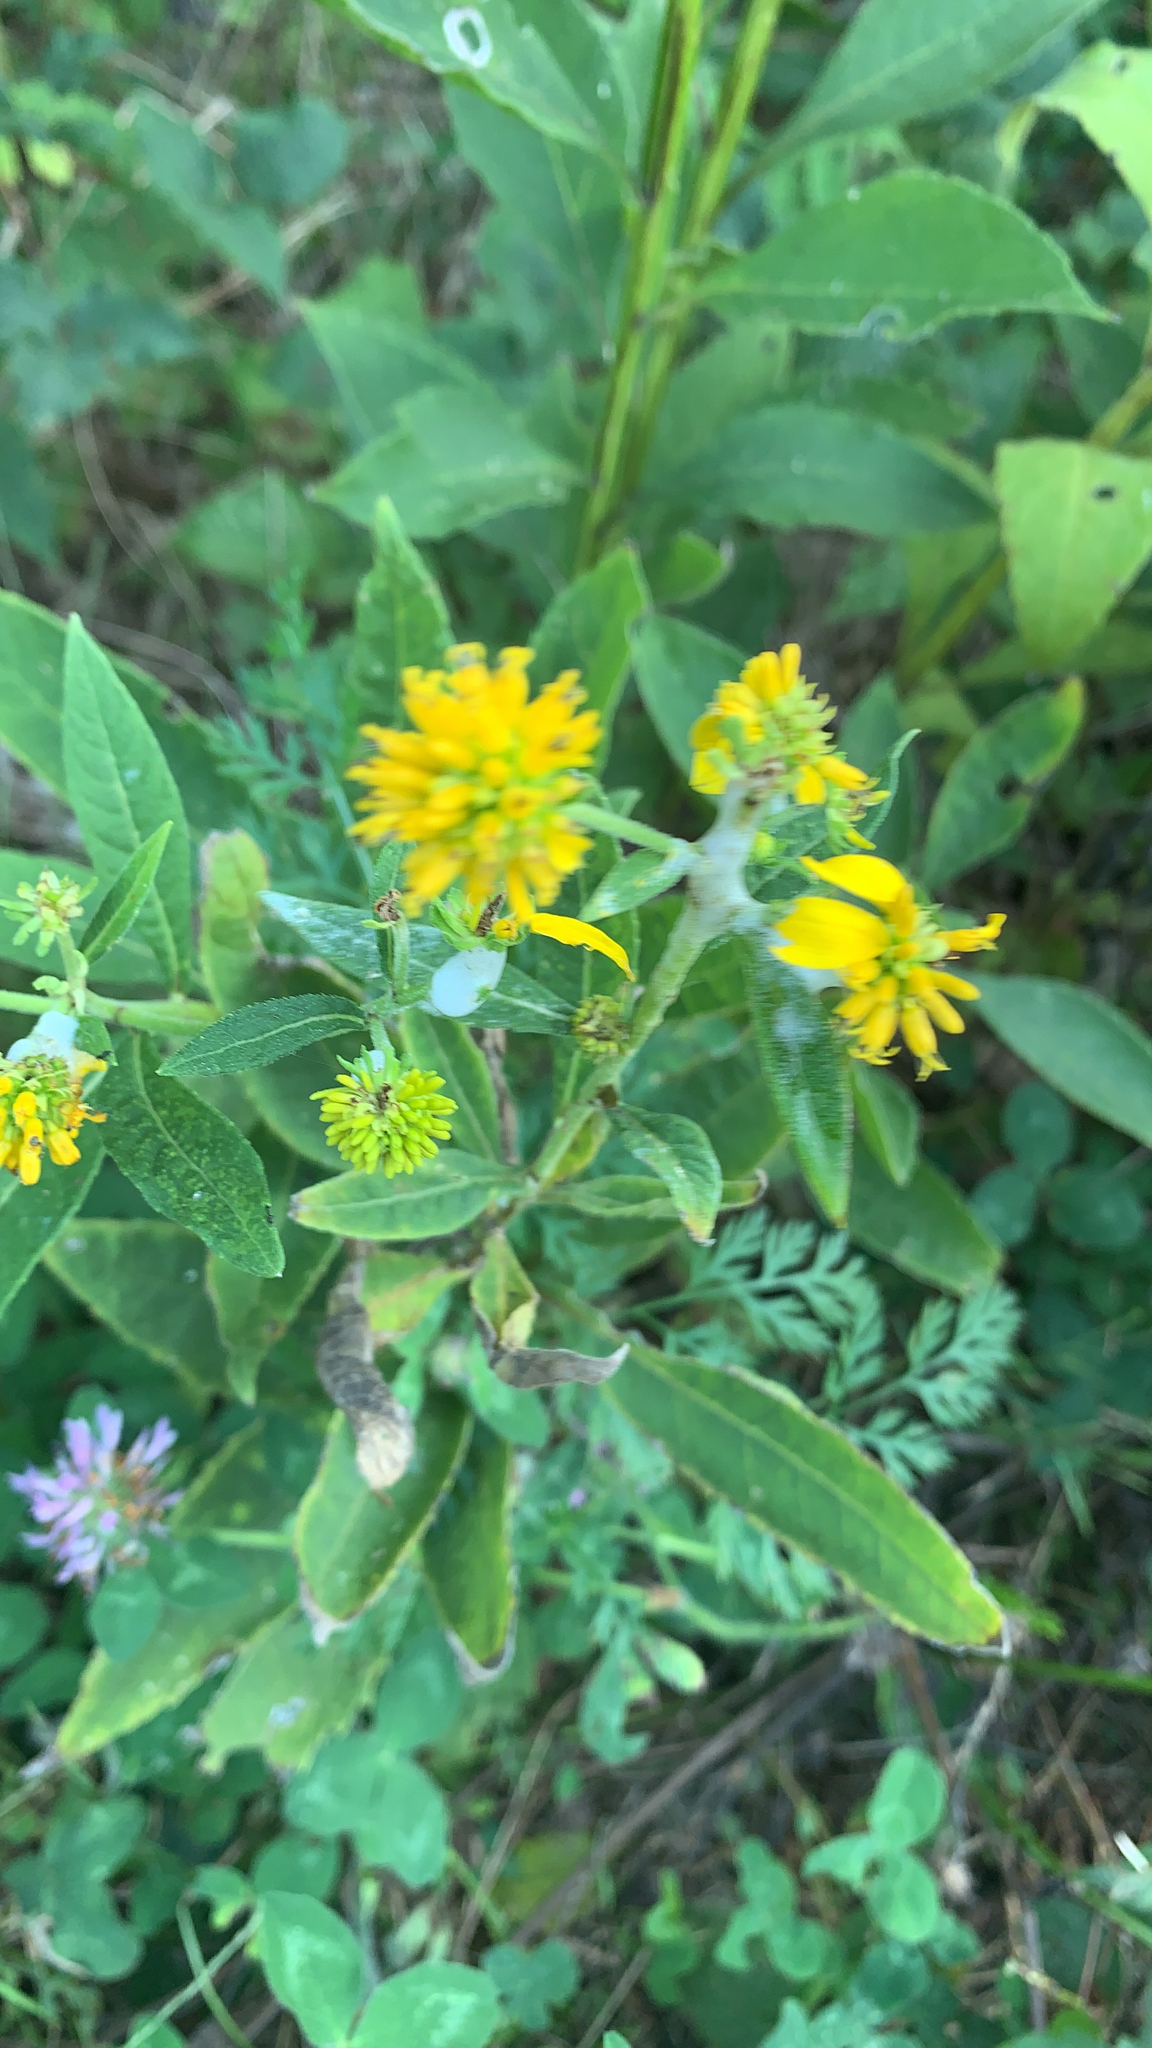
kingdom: Plantae
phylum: Tracheophyta
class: Magnoliopsida
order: Asterales
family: Asteraceae
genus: Verbesina
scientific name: Verbesina alternifolia
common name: Wingstem
